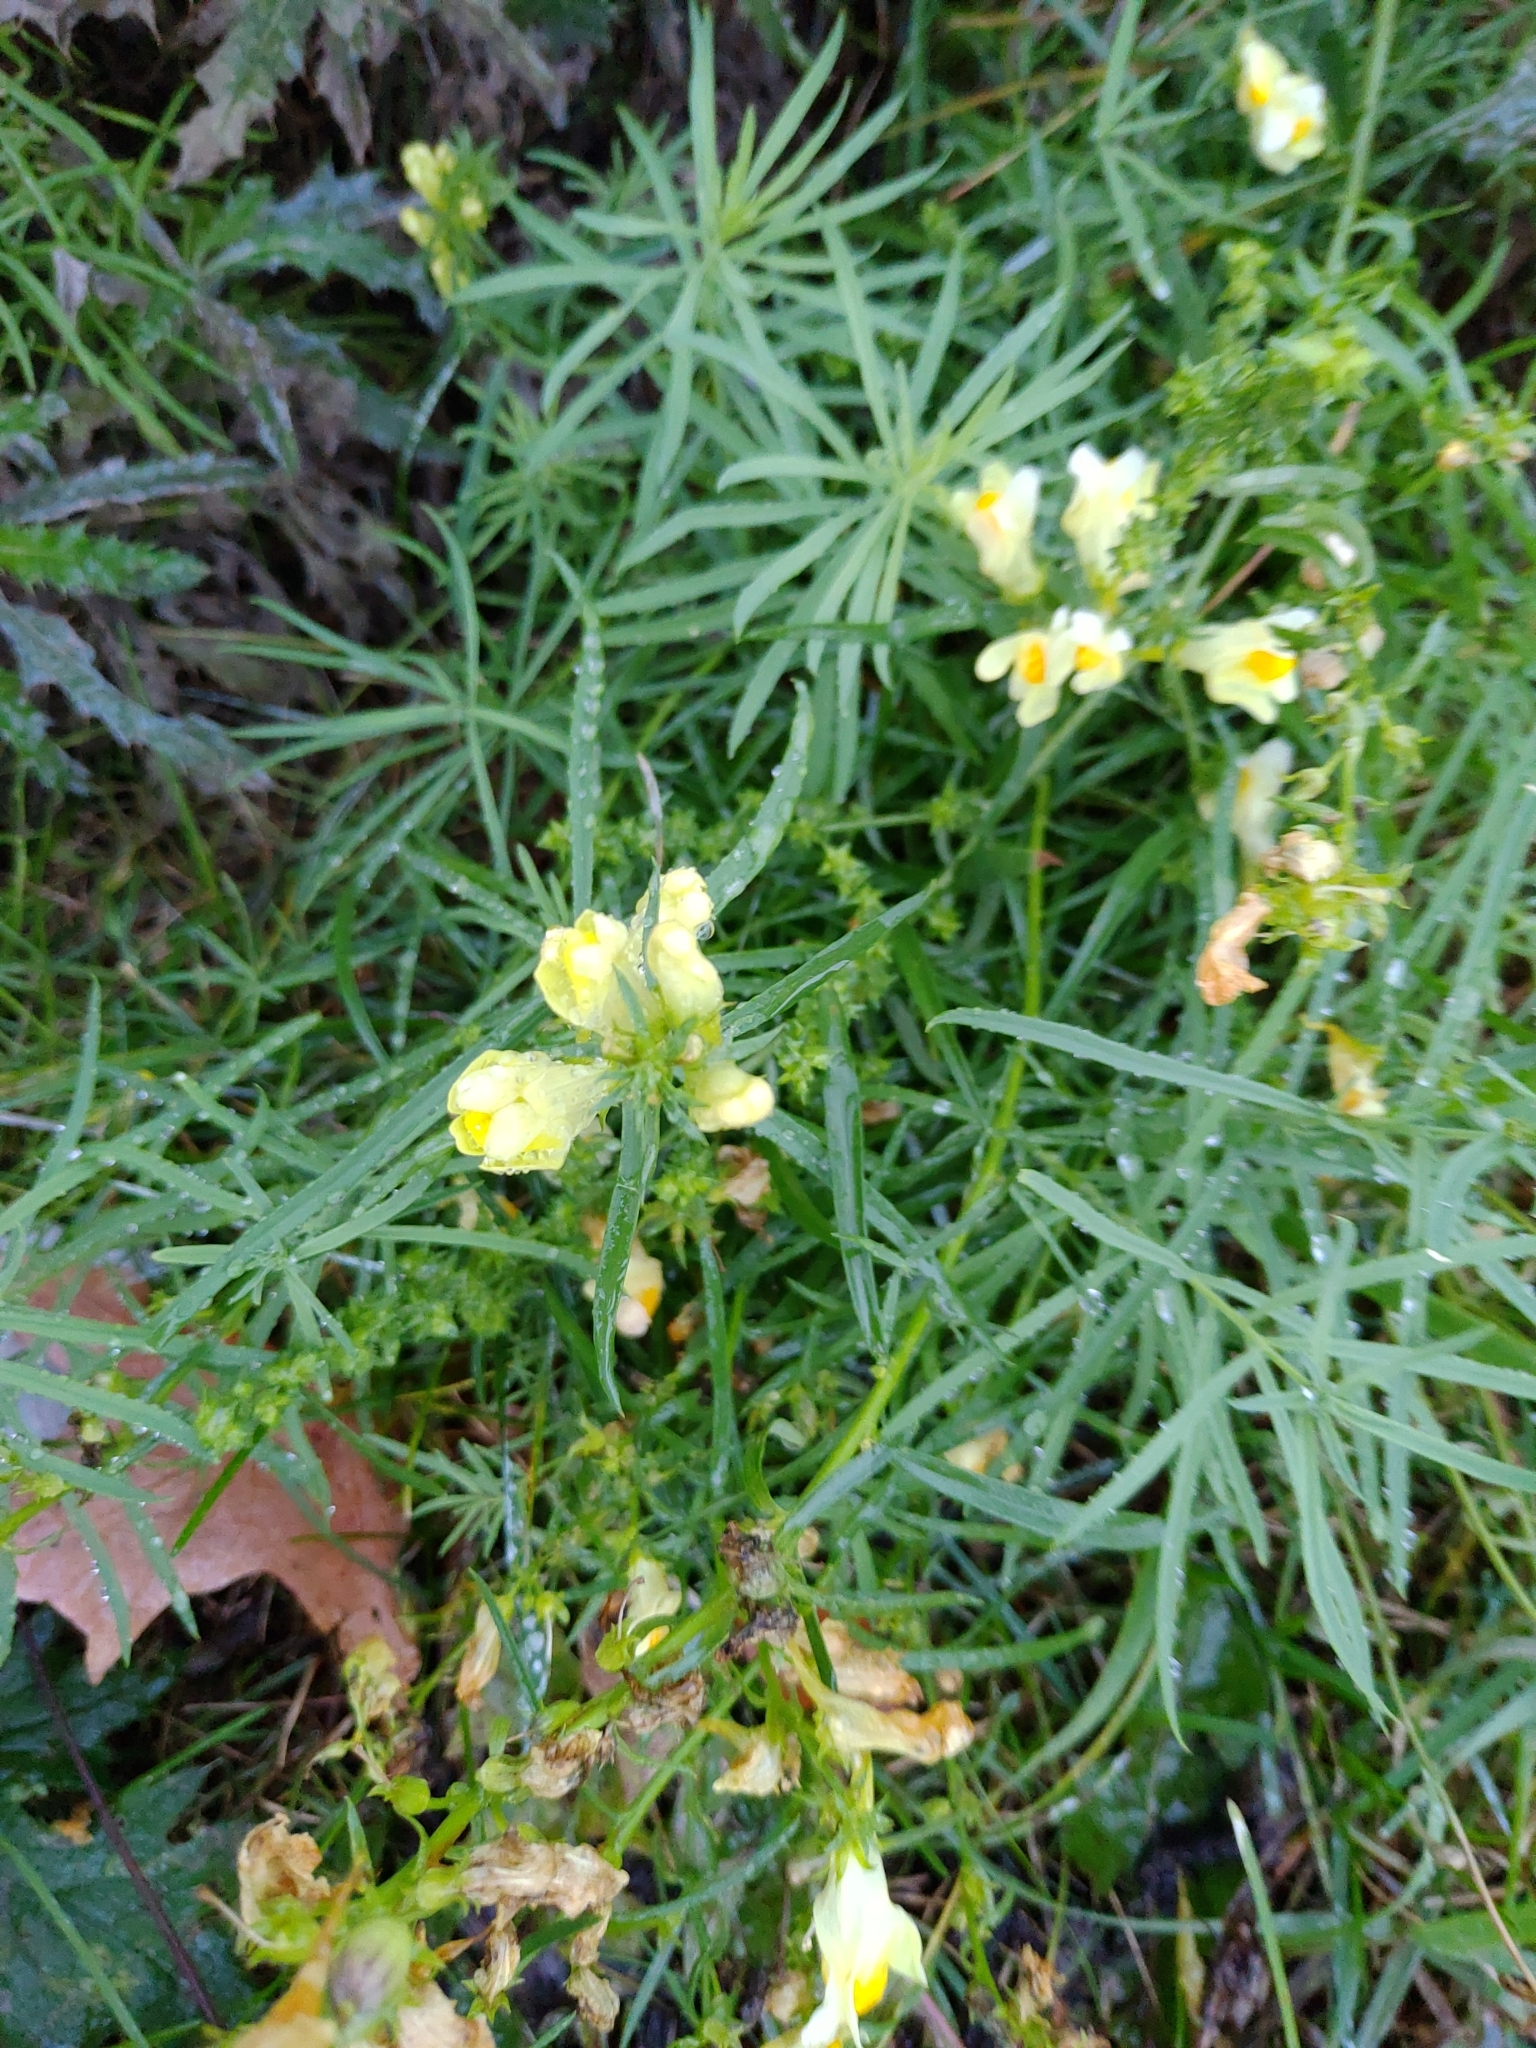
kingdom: Plantae
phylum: Tracheophyta
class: Magnoliopsida
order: Lamiales
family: Plantaginaceae
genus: Linaria
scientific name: Linaria vulgaris
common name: Butter and eggs
